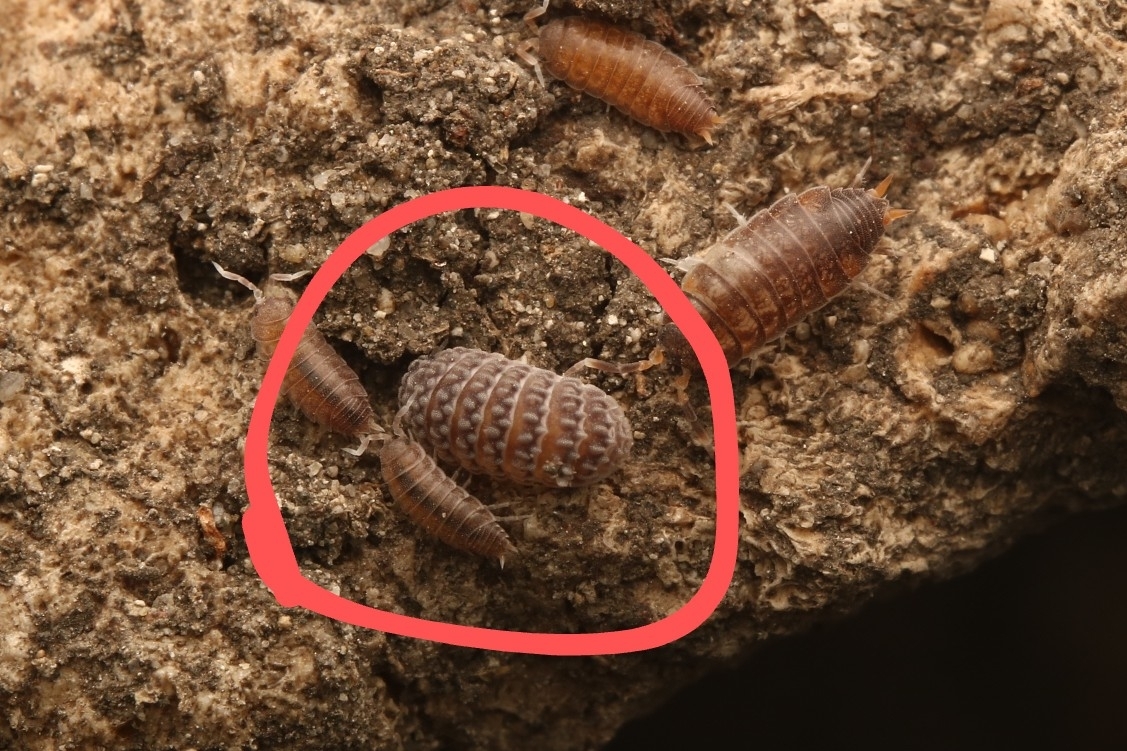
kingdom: Animalia
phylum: Arthropoda
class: Malacostraca
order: Isopoda
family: Armadillidae
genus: Ctenorillo
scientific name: Ctenorillo tuberosus
